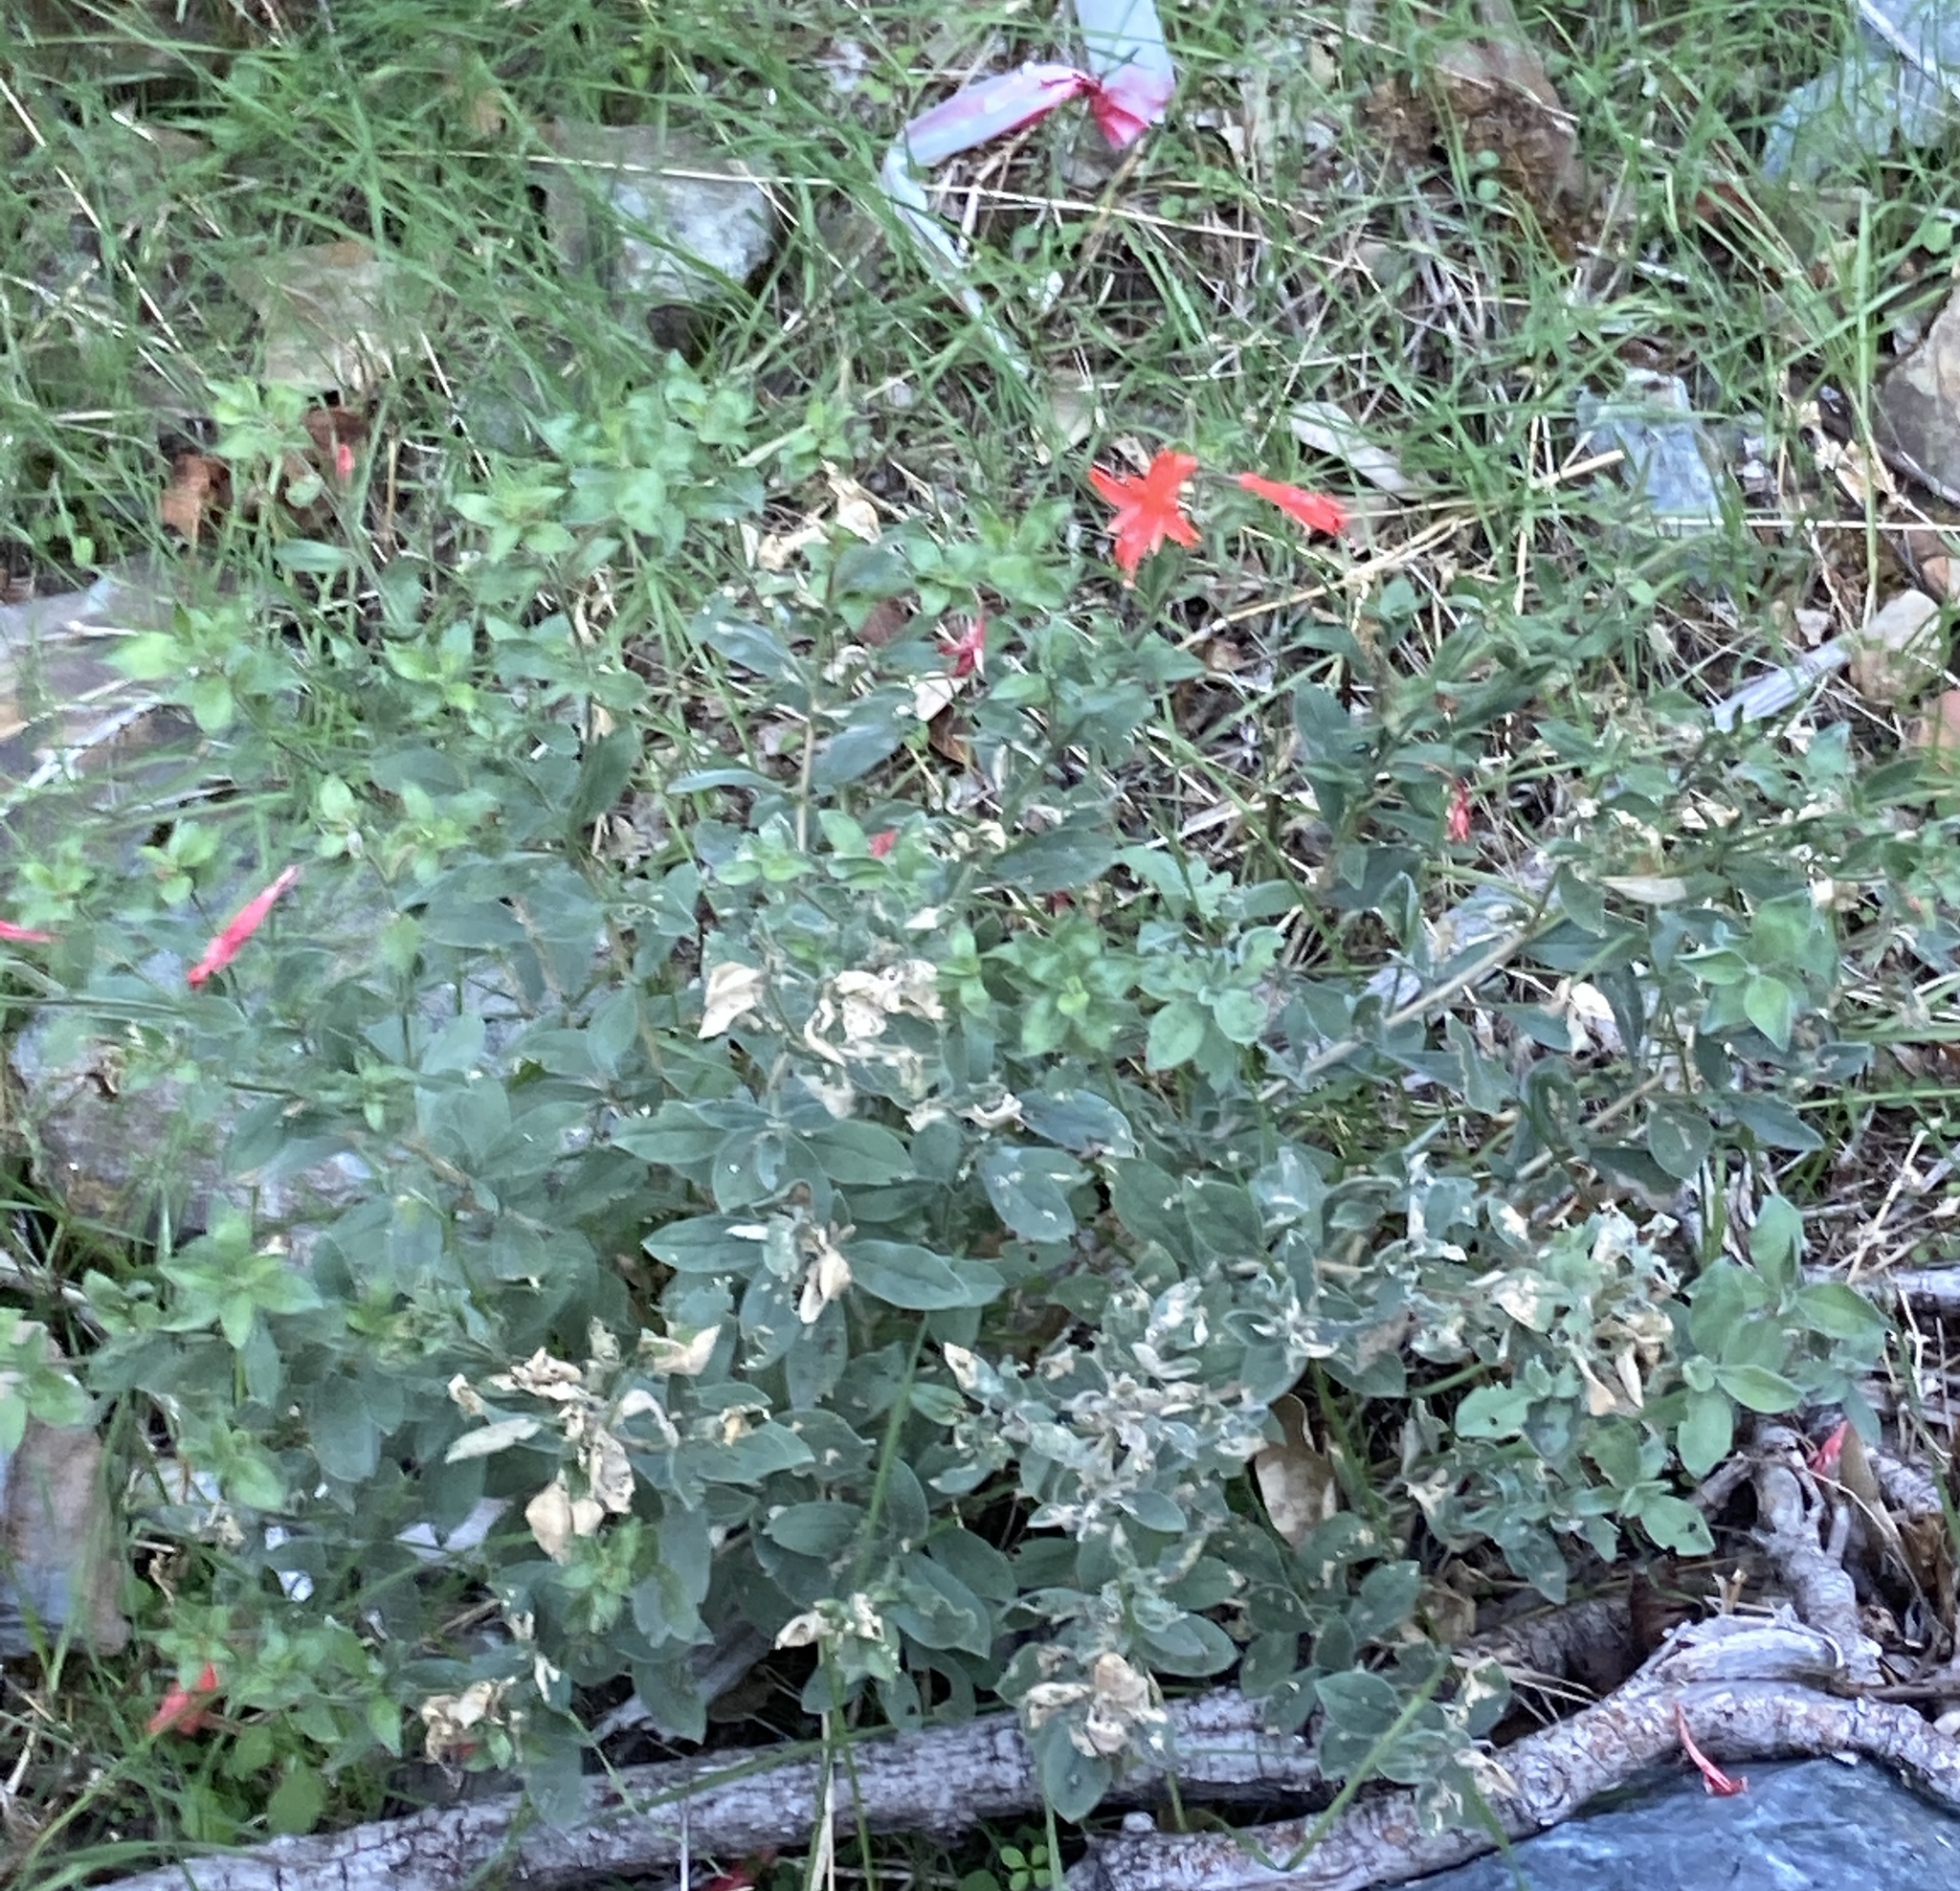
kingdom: Plantae
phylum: Tracheophyta
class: Magnoliopsida
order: Myrtales
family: Onagraceae
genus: Epilobium
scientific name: Epilobium canum
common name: California-fuchsia
